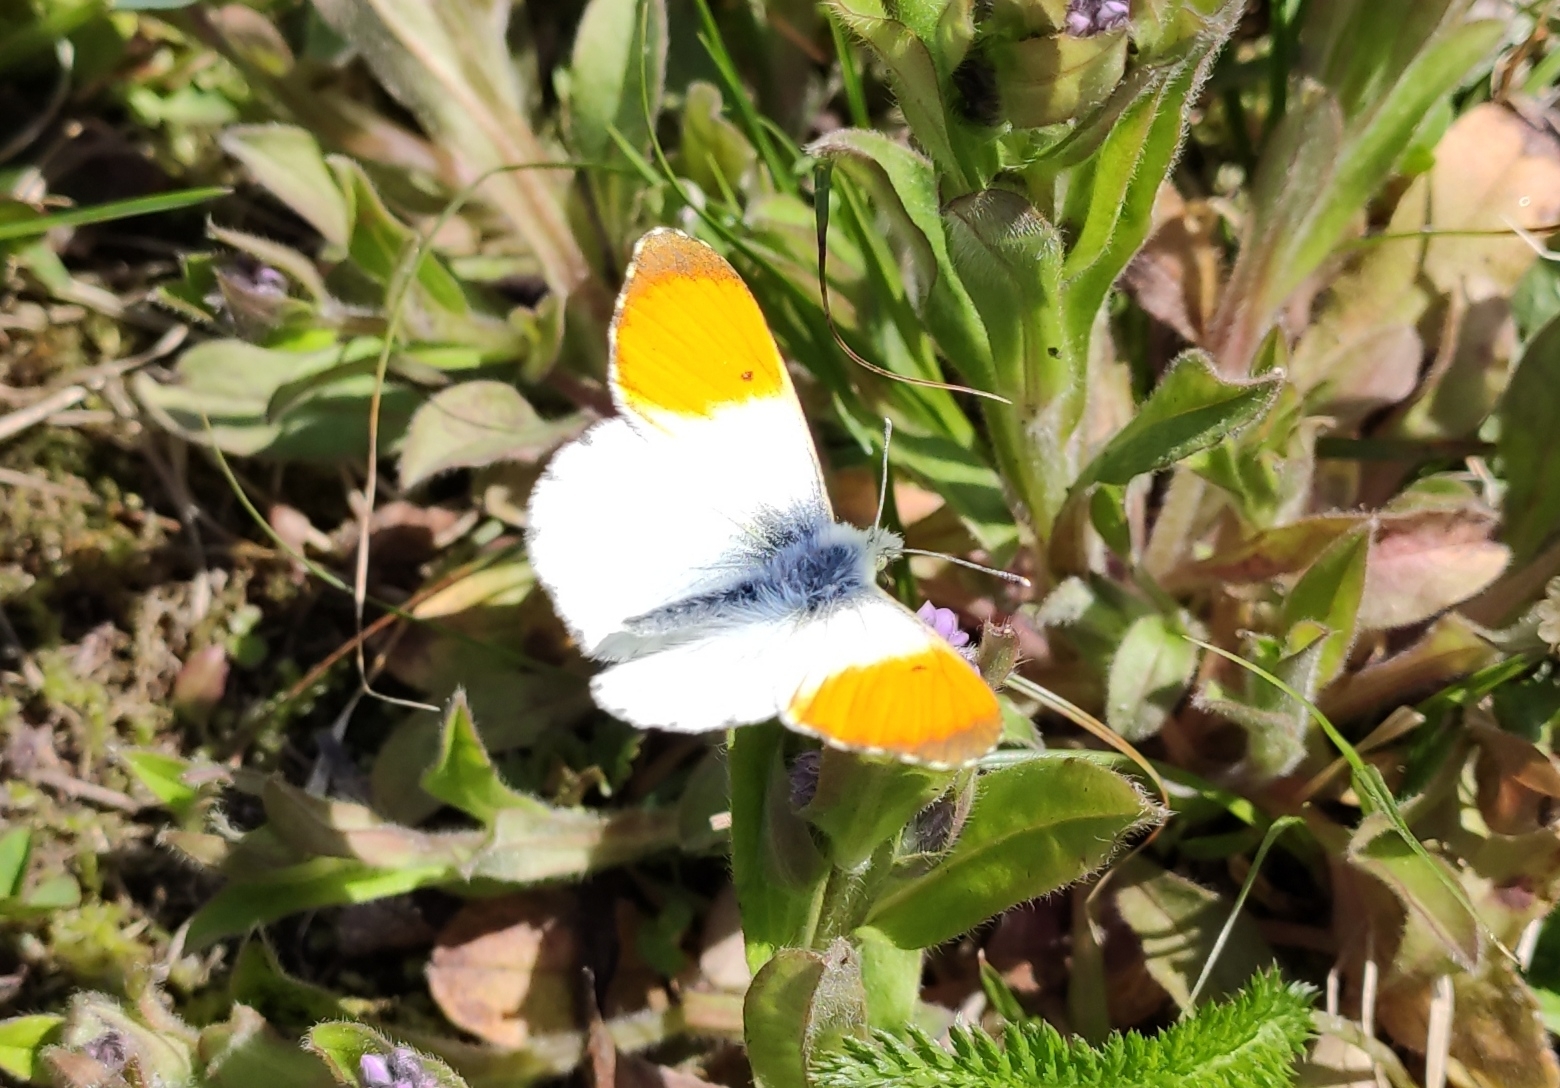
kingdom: Animalia
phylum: Arthropoda
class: Insecta
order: Lepidoptera
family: Pieridae
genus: Anthocharis
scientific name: Anthocharis cardamines
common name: Orange-tip
